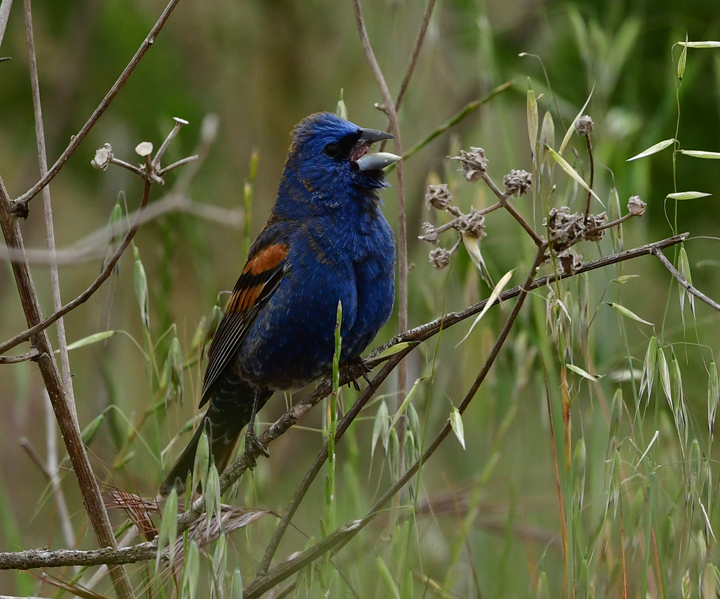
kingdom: Animalia
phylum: Chordata
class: Aves
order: Passeriformes
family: Cardinalidae
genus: Passerina
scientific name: Passerina caerulea
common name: Blue grosbeak
